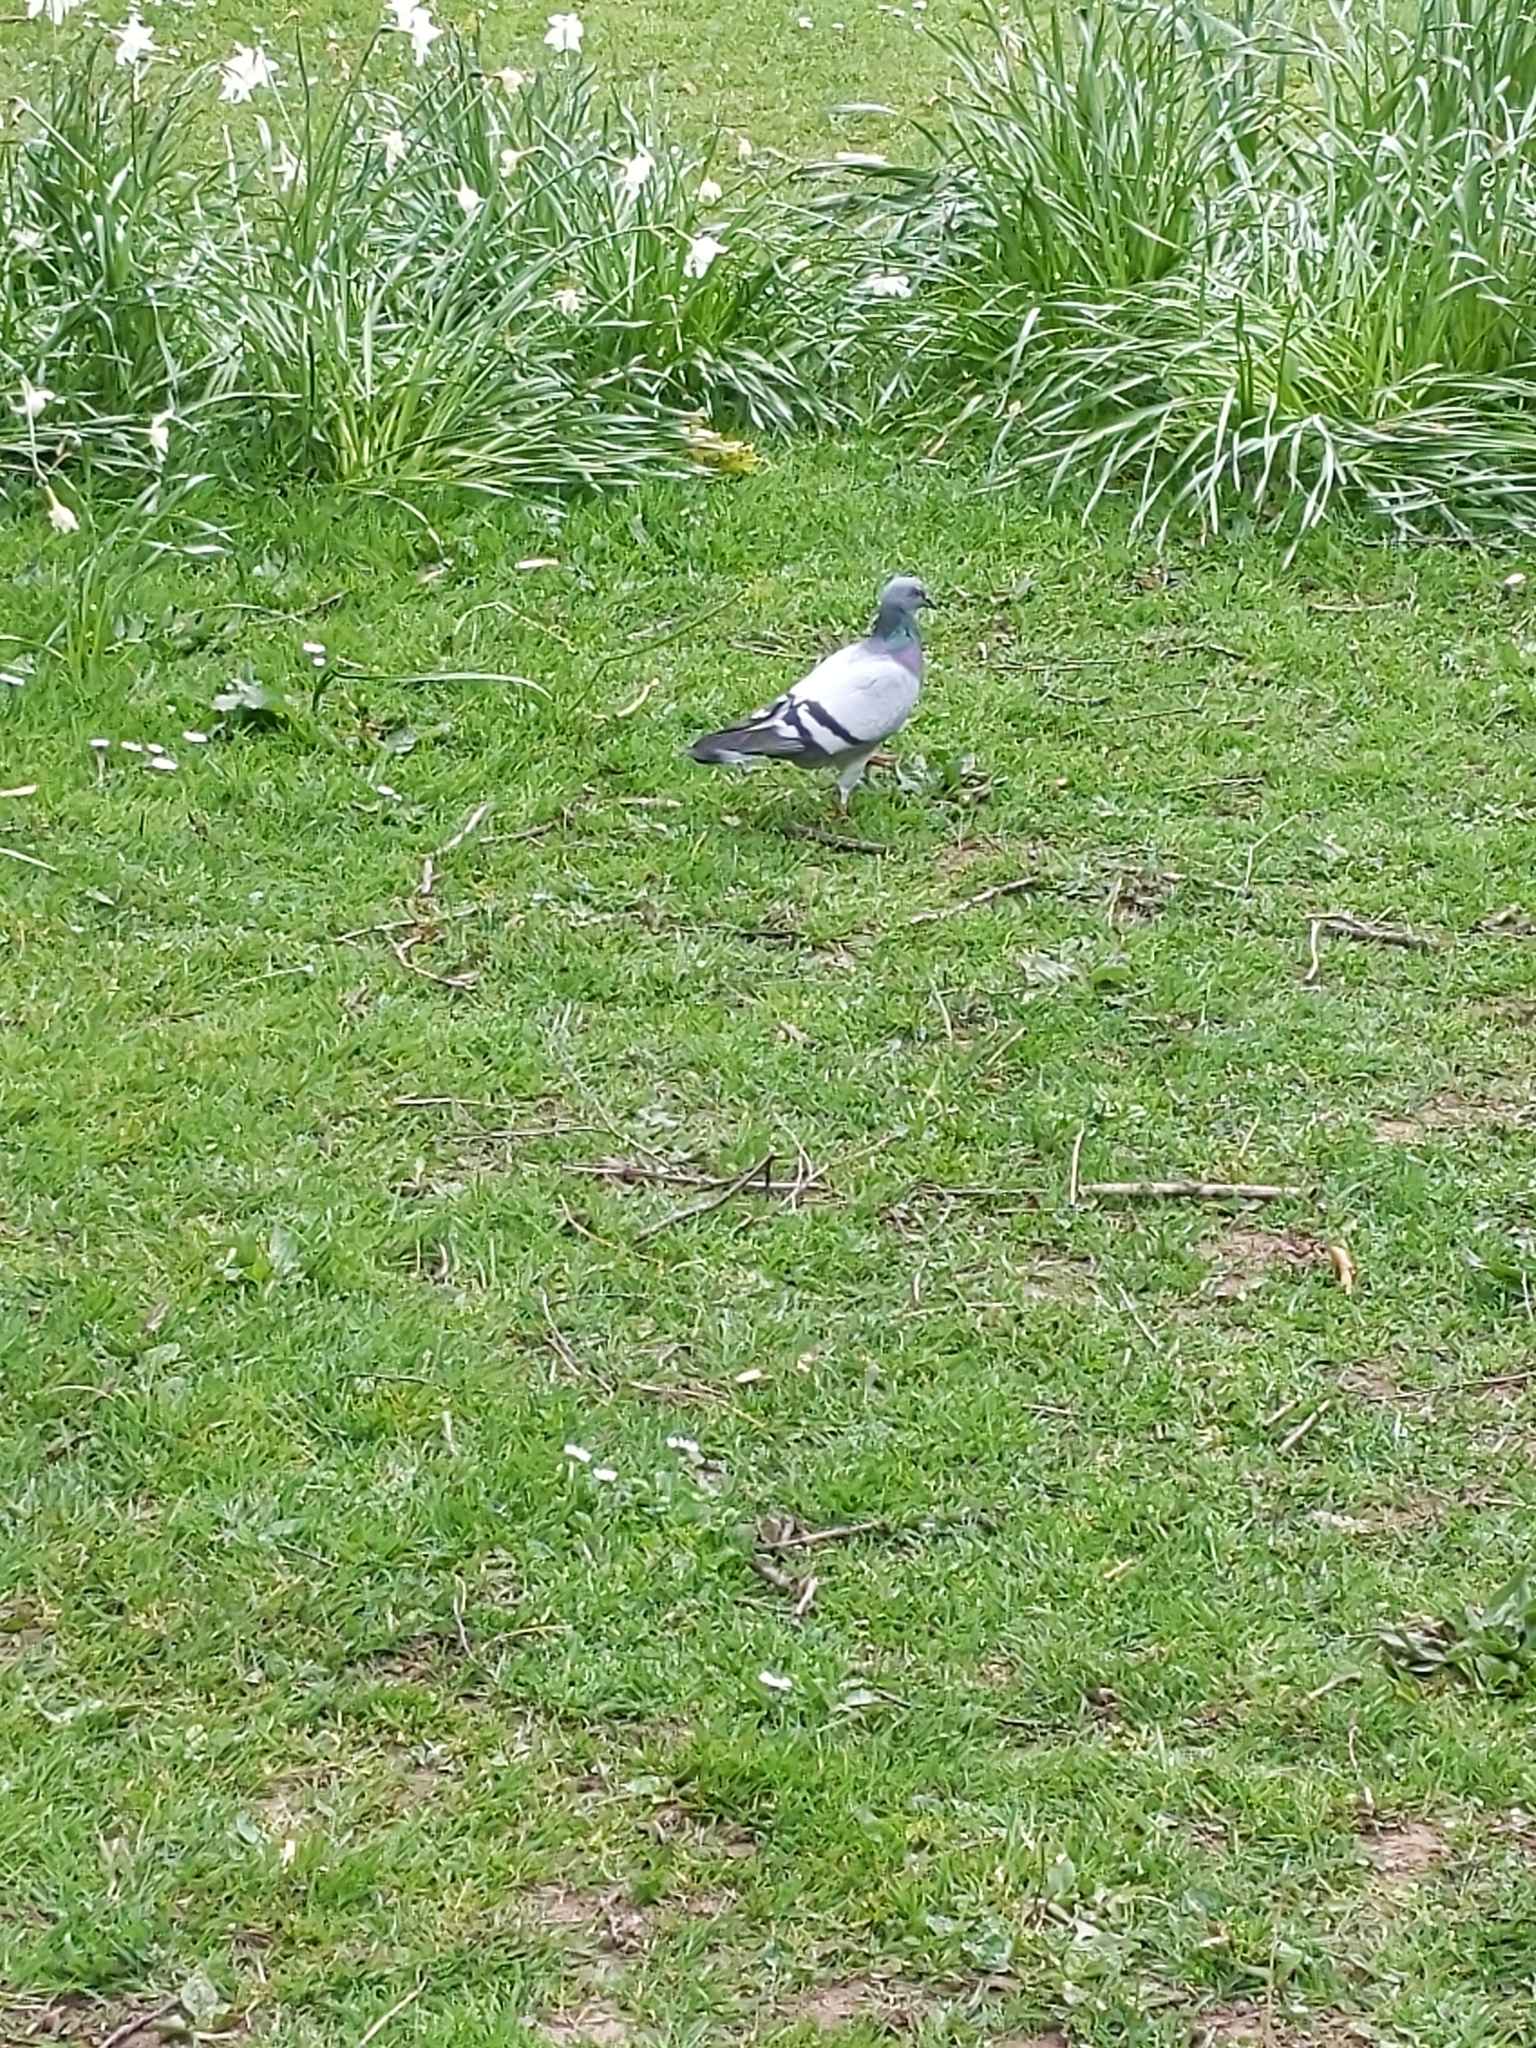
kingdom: Animalia
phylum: Chordata
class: Aves
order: Columbiformes
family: Columbidae
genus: Columba
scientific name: Columba livia
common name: Rock pigeon
